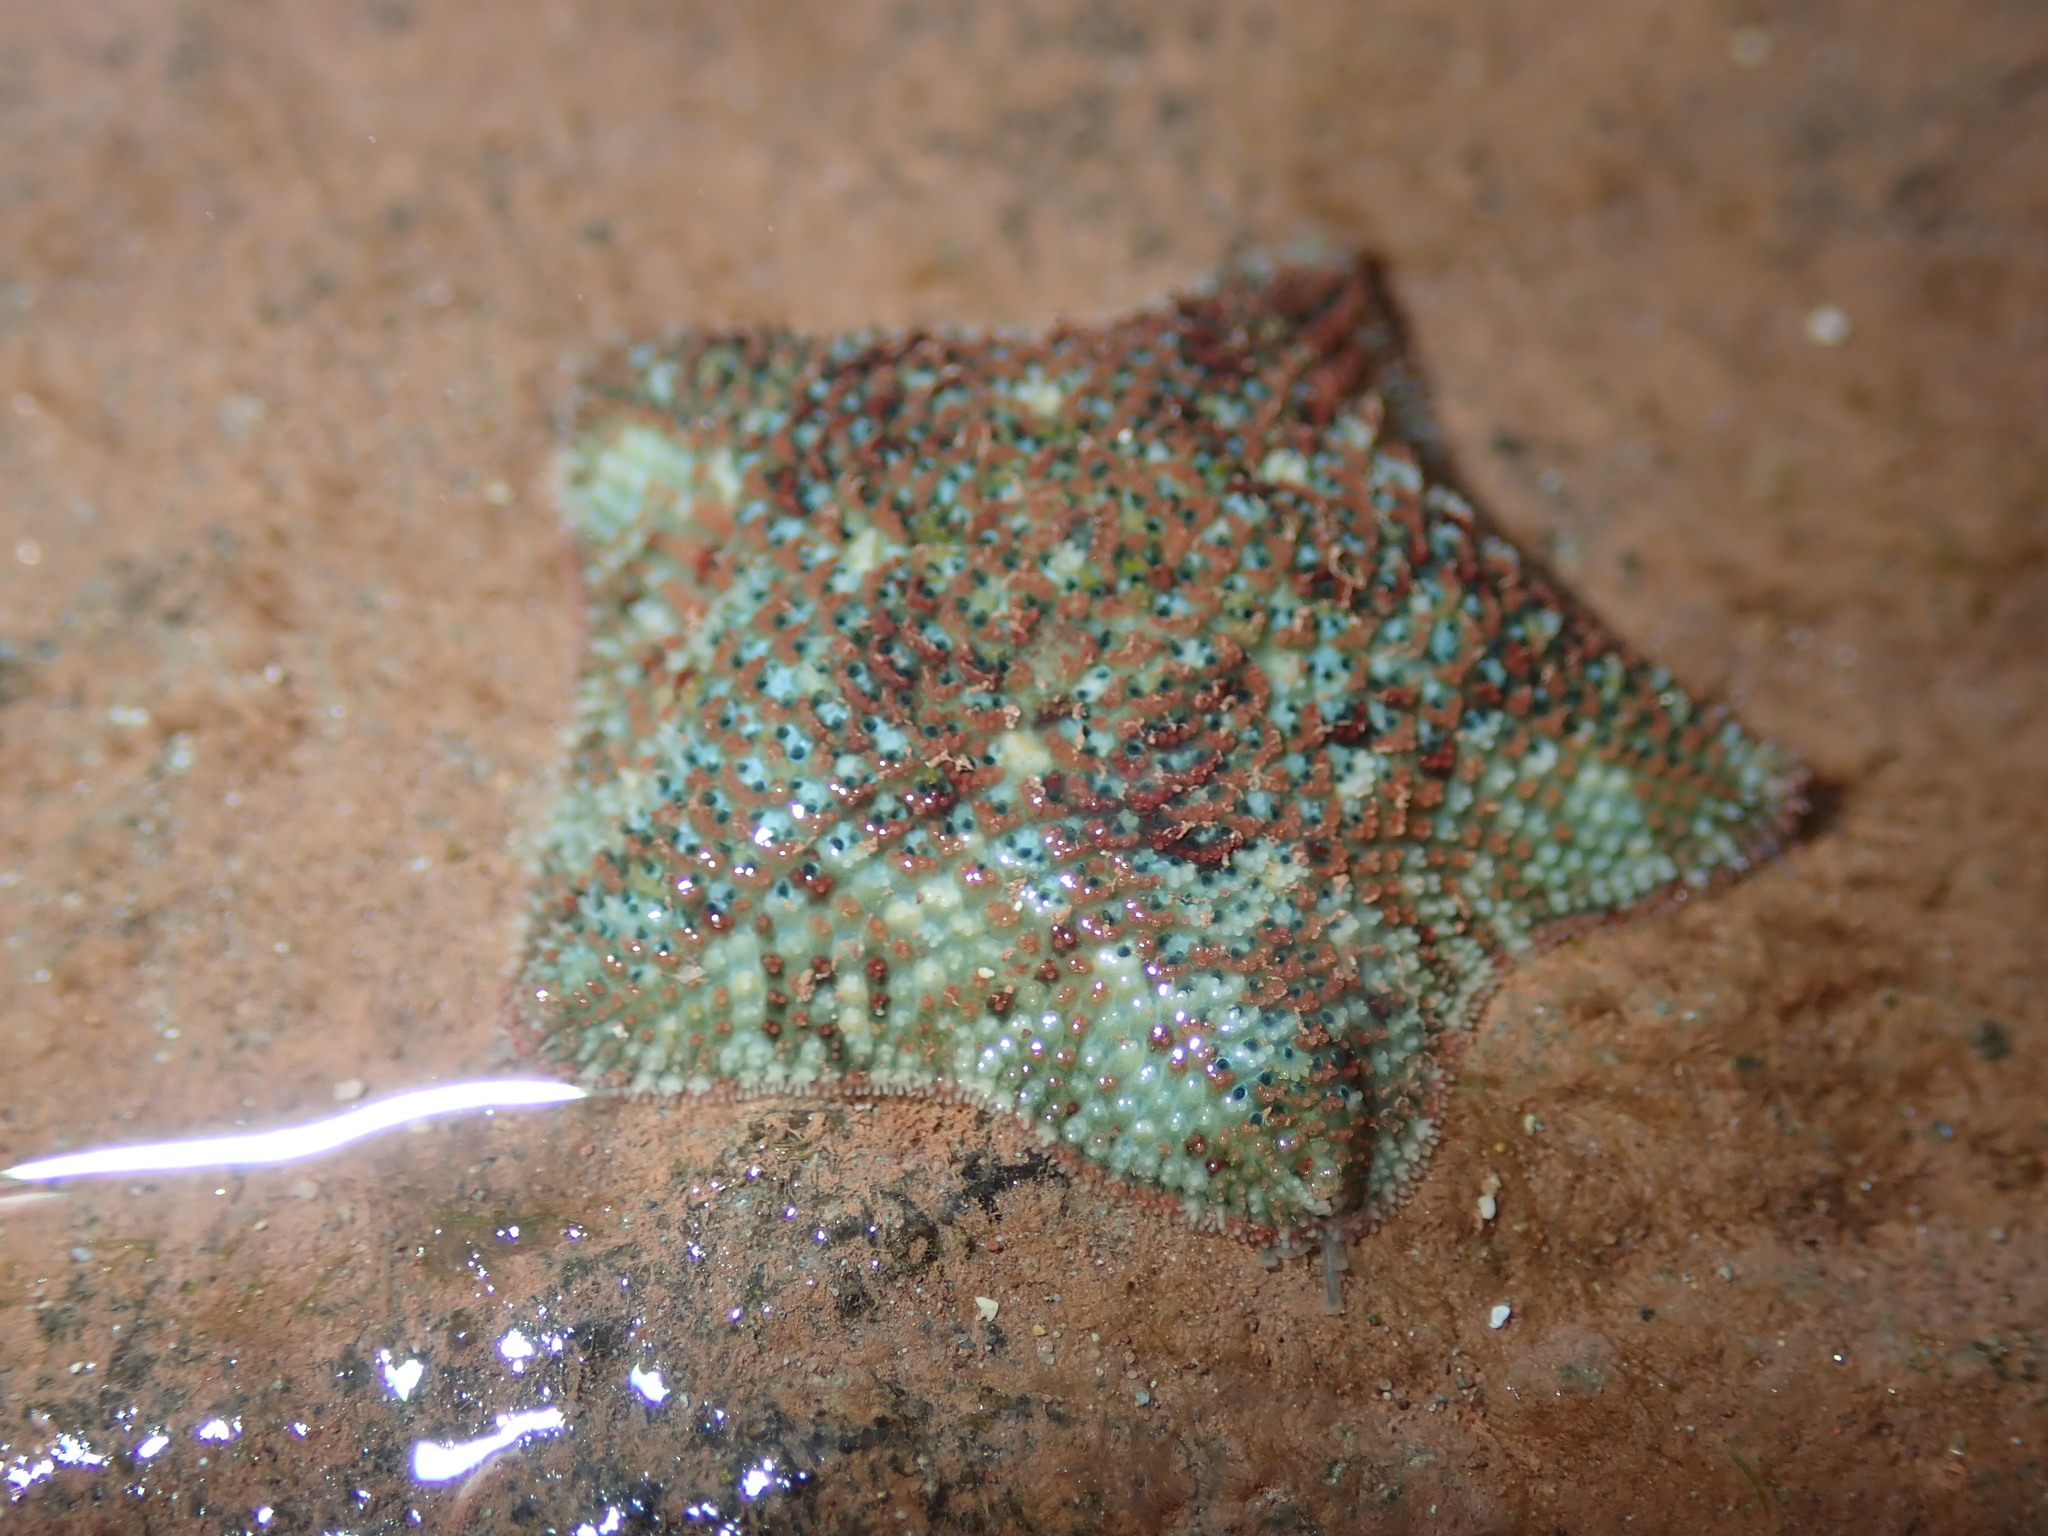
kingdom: Animalia
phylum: Echinodermata
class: Asteroidea
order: Valvatida
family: Asterinidae
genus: Parvulastra
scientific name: Parvulastra exigua
